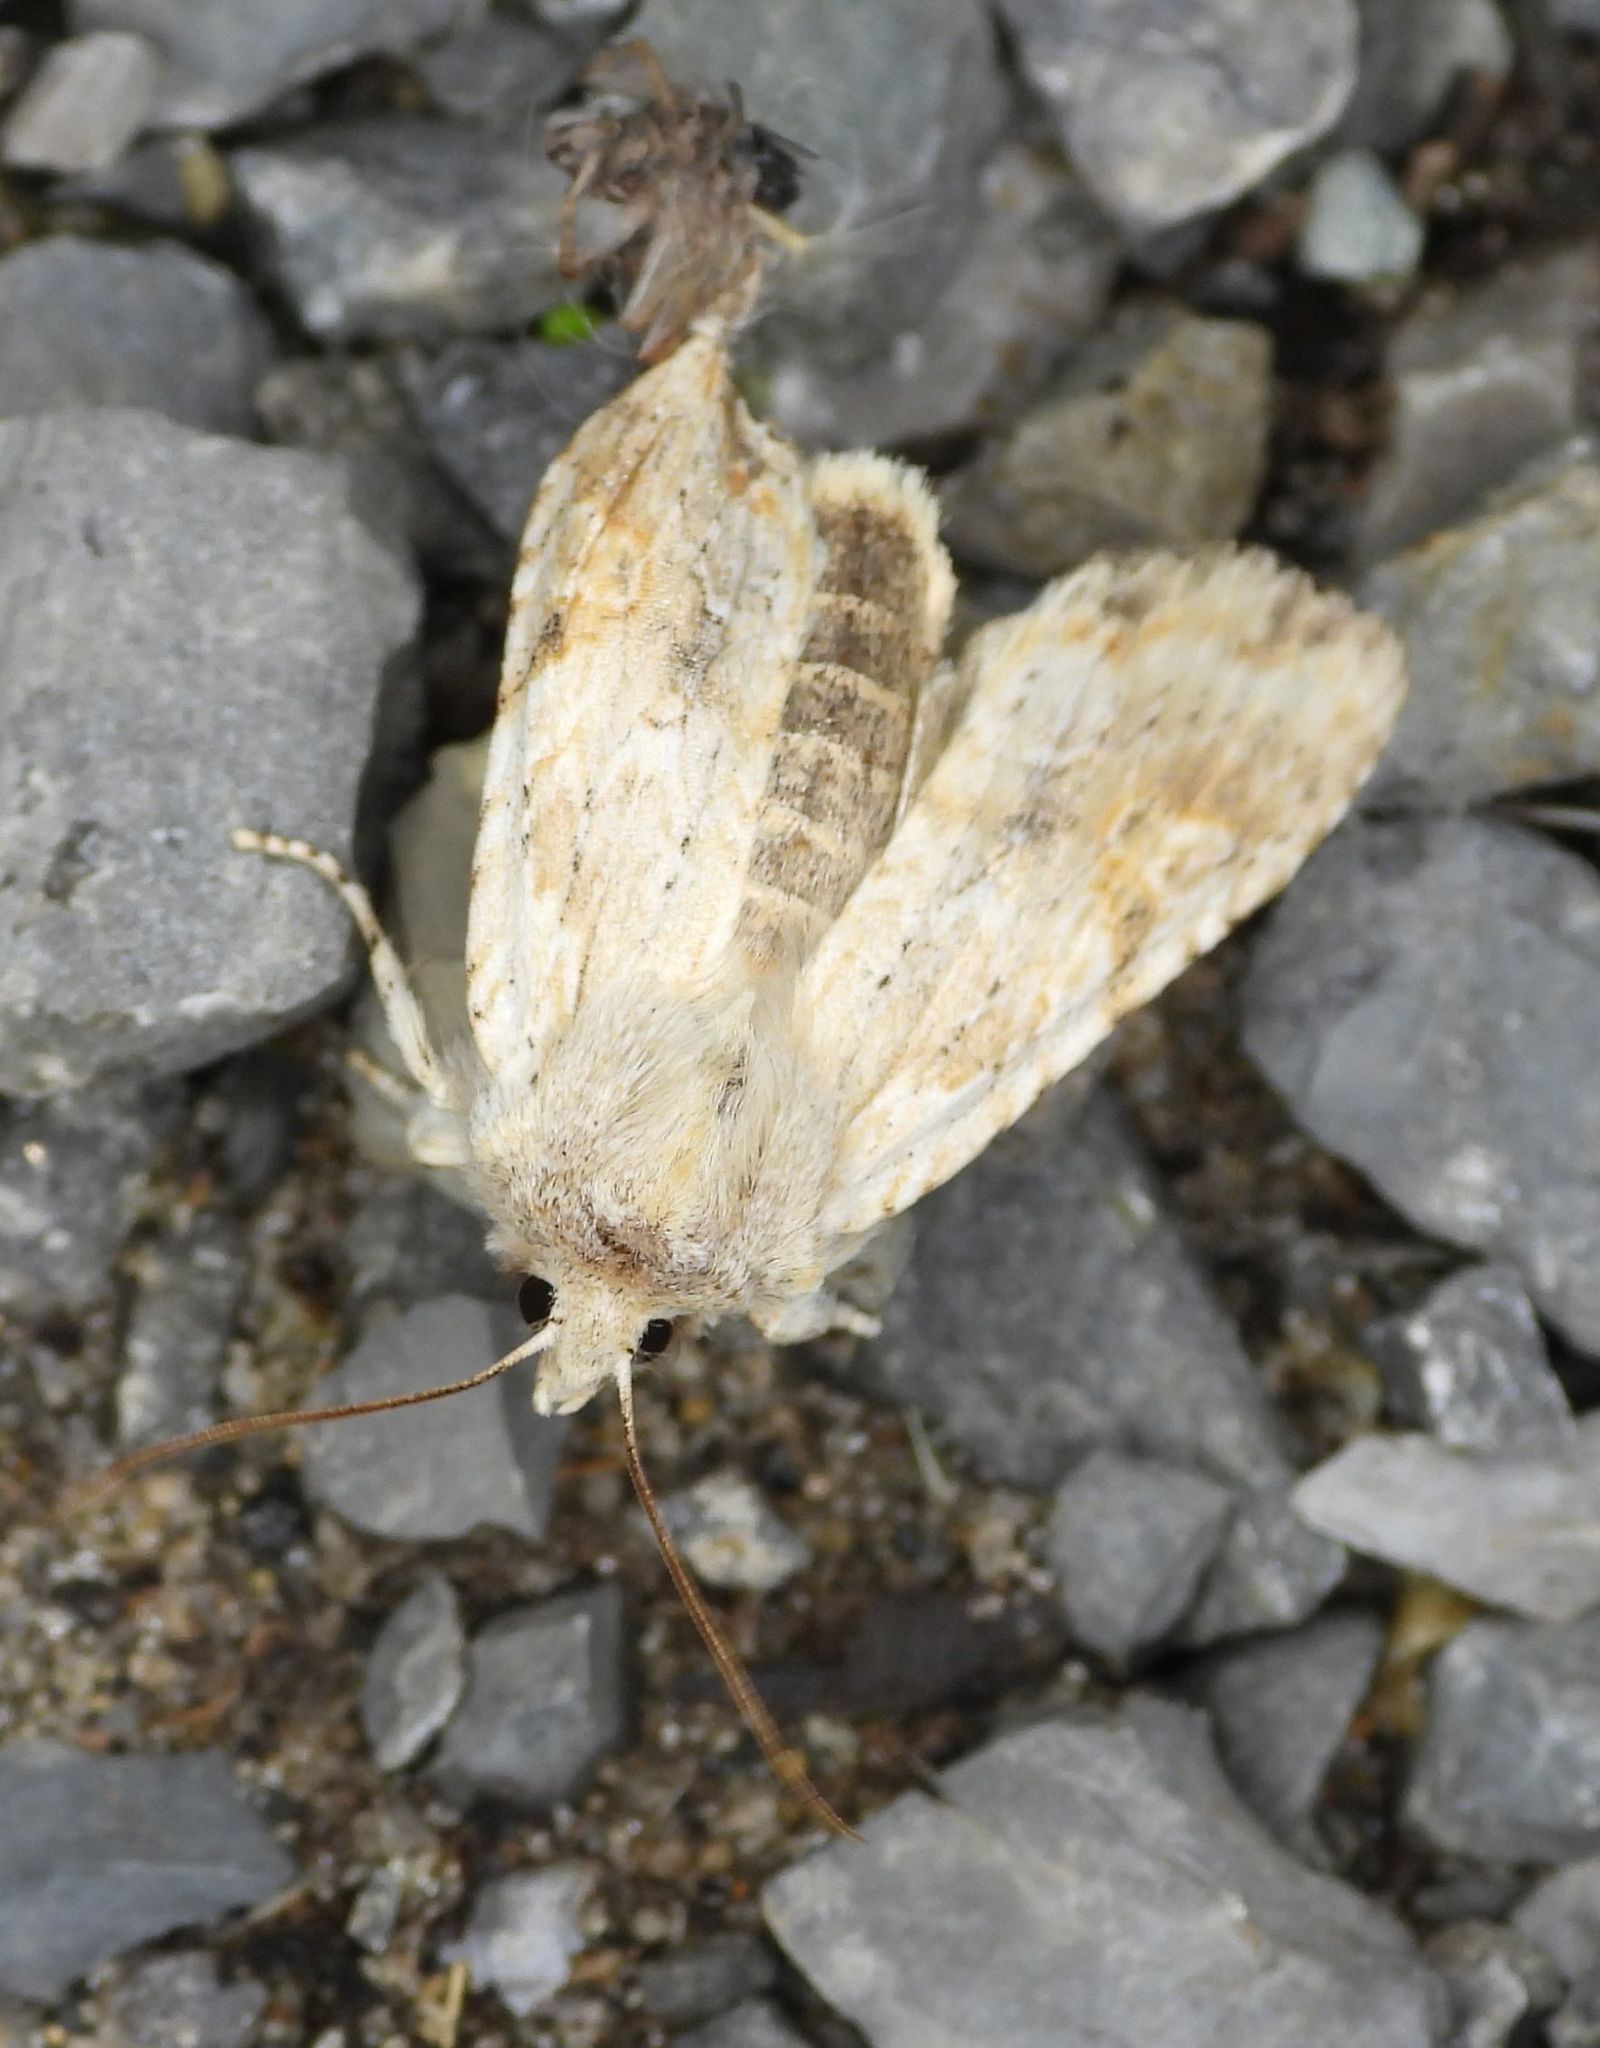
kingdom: Animalia
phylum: Arthropoda
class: Insecta
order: Lepidoptera
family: Noctuidae
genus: Lithophane
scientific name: Lithophane bethunei
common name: Bethune's pinion moth
